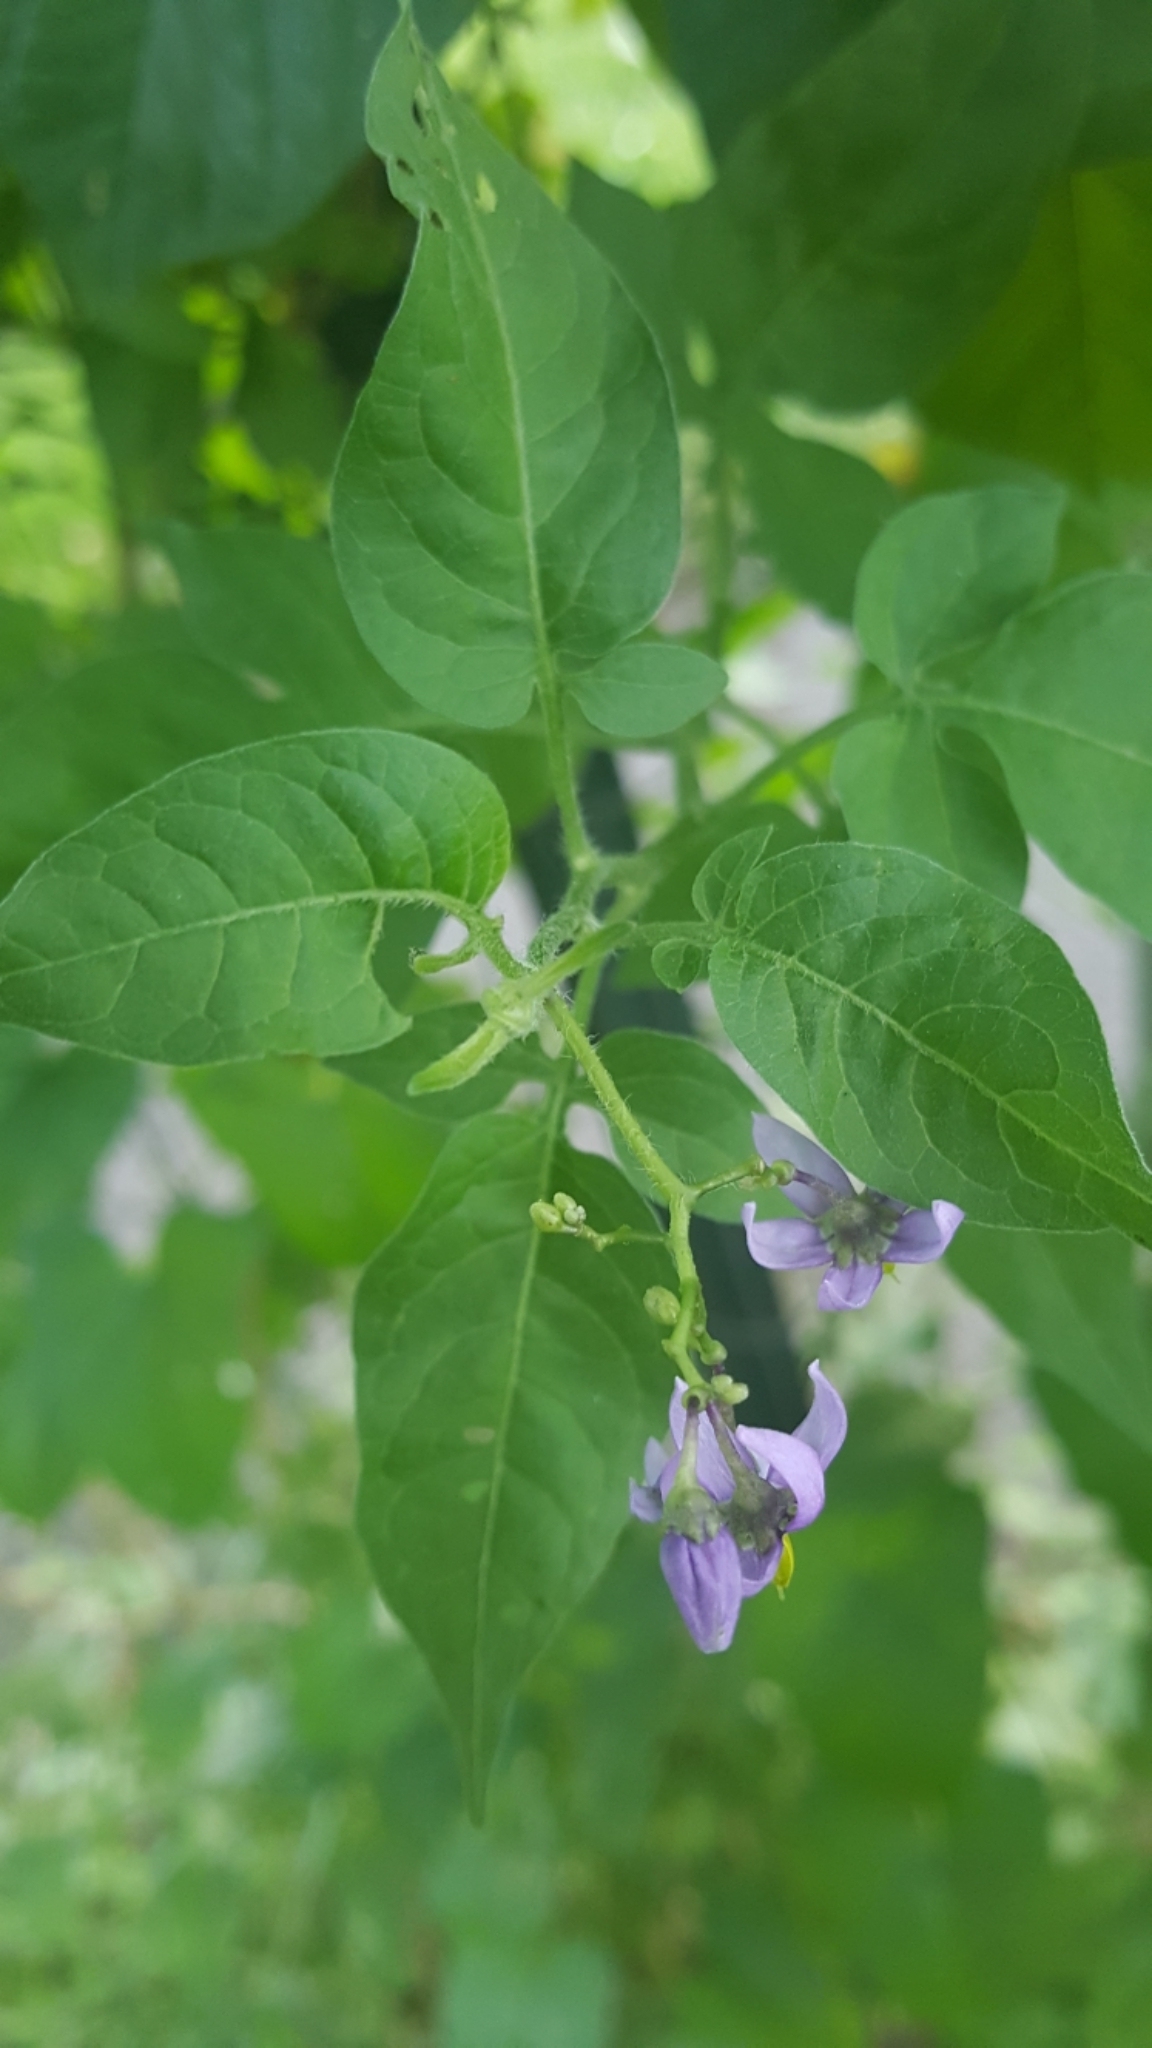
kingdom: Plantae
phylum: Tracheophyta
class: Magnoliopsida
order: Solanales
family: Solanaceae
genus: Solanum
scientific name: Solanum dulcamara
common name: Climbing nightshade
